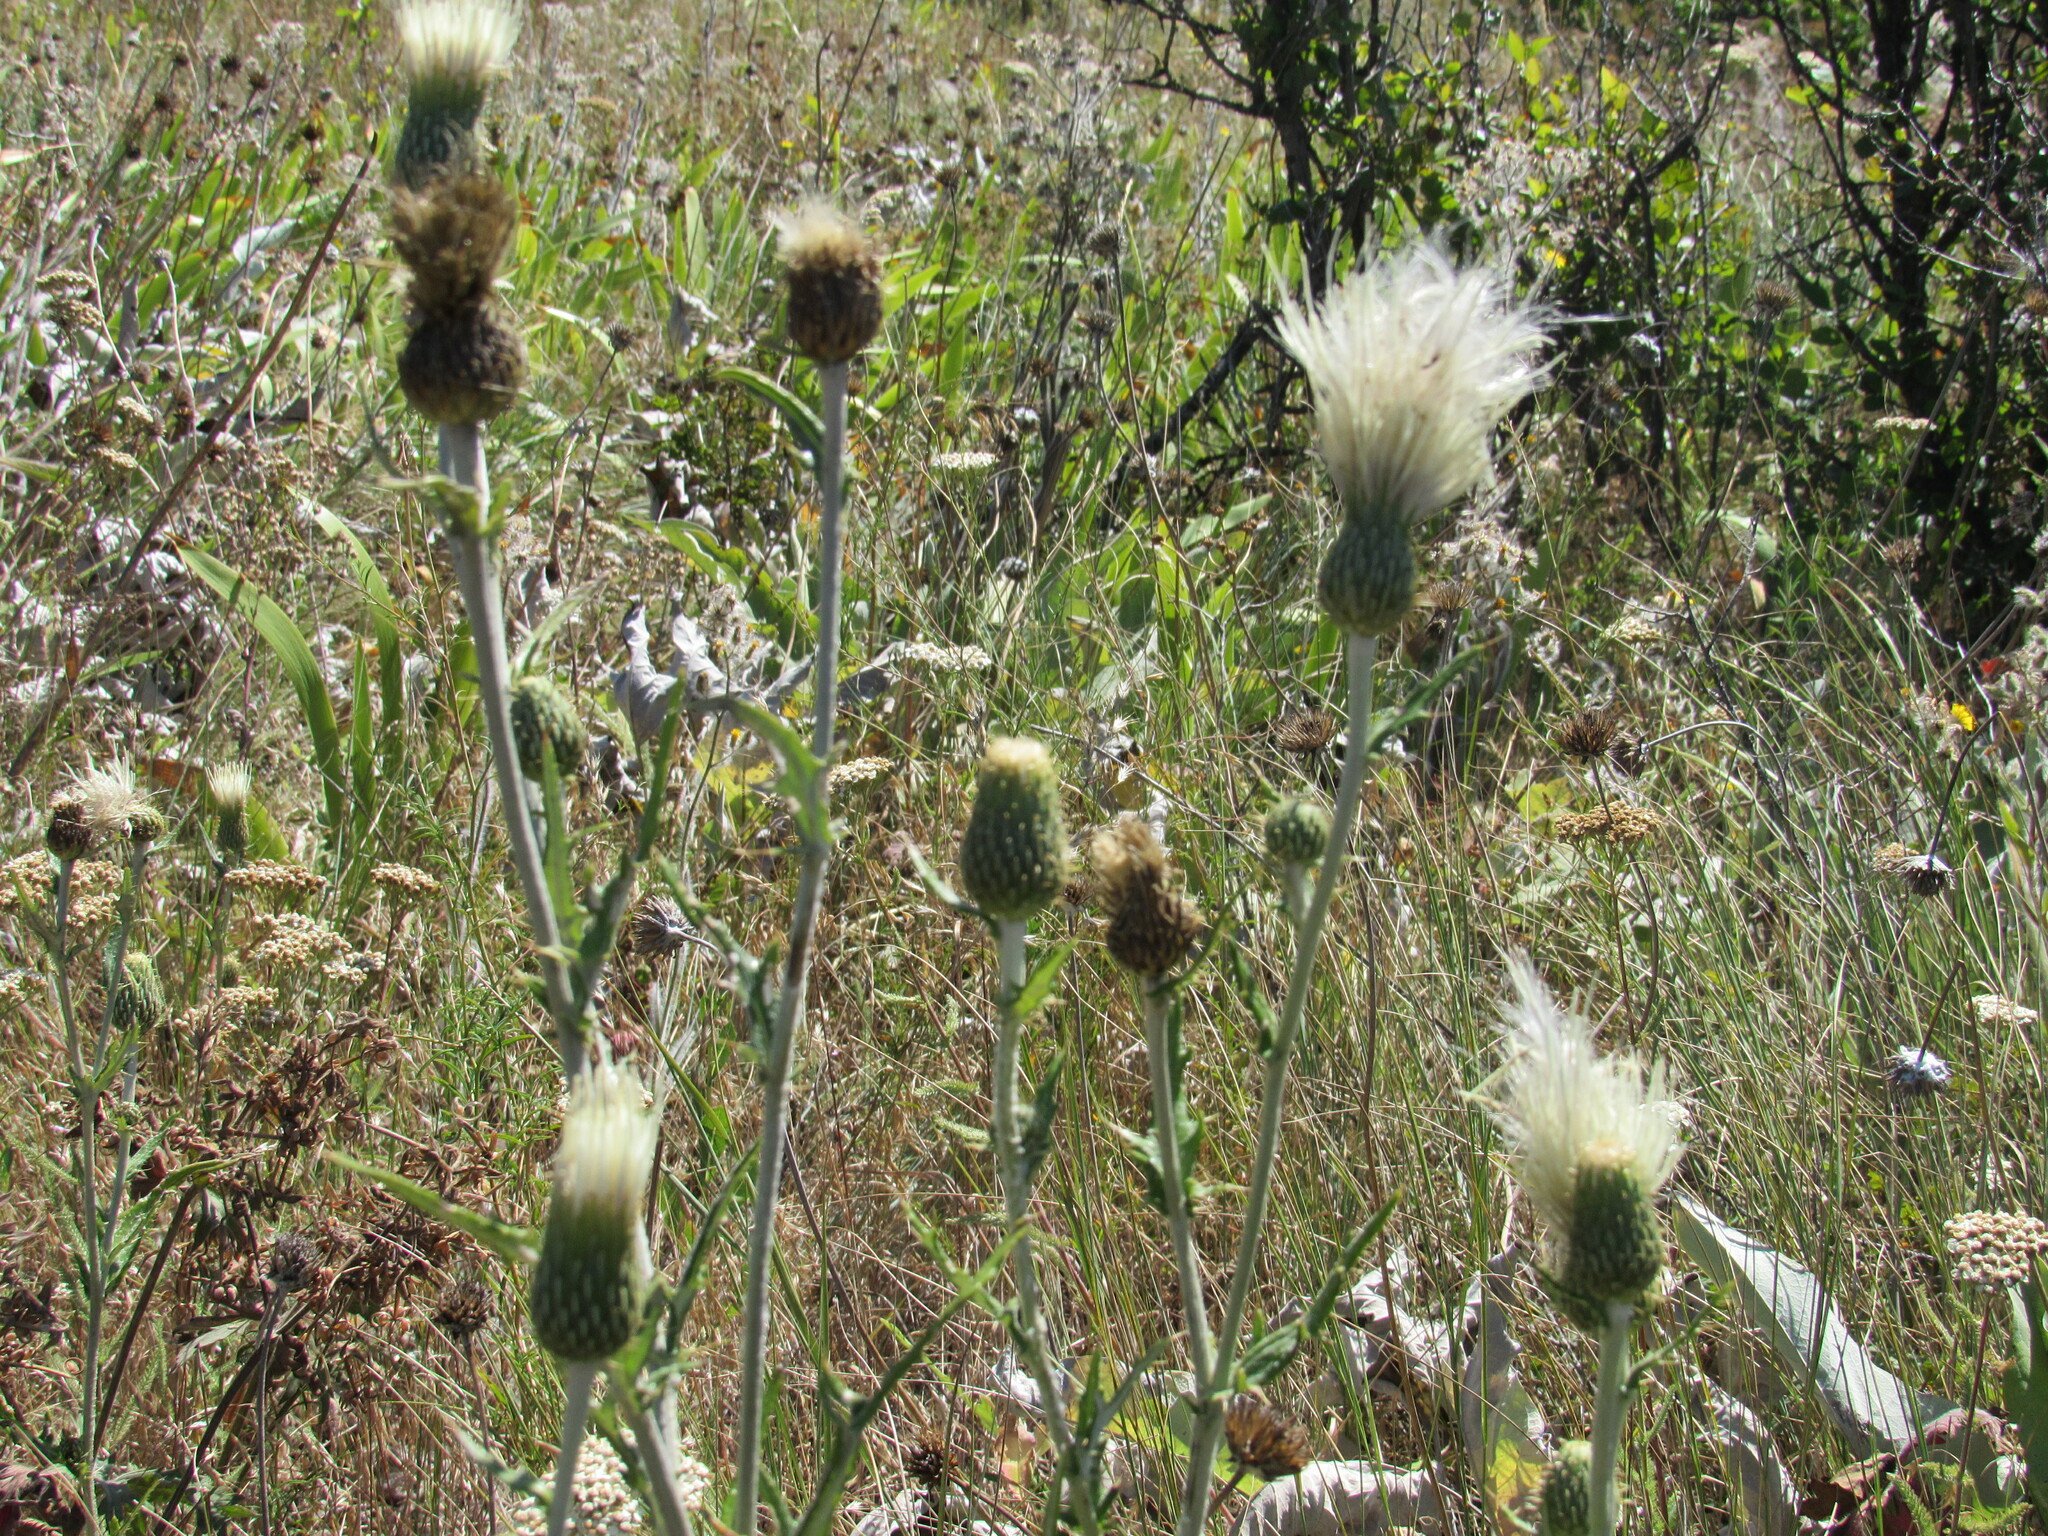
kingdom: Plantae
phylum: Tracheophyta
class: Magnoliopsida
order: Asterales
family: Asteraceae
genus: Cirsium
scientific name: Cirsium brevifolium
